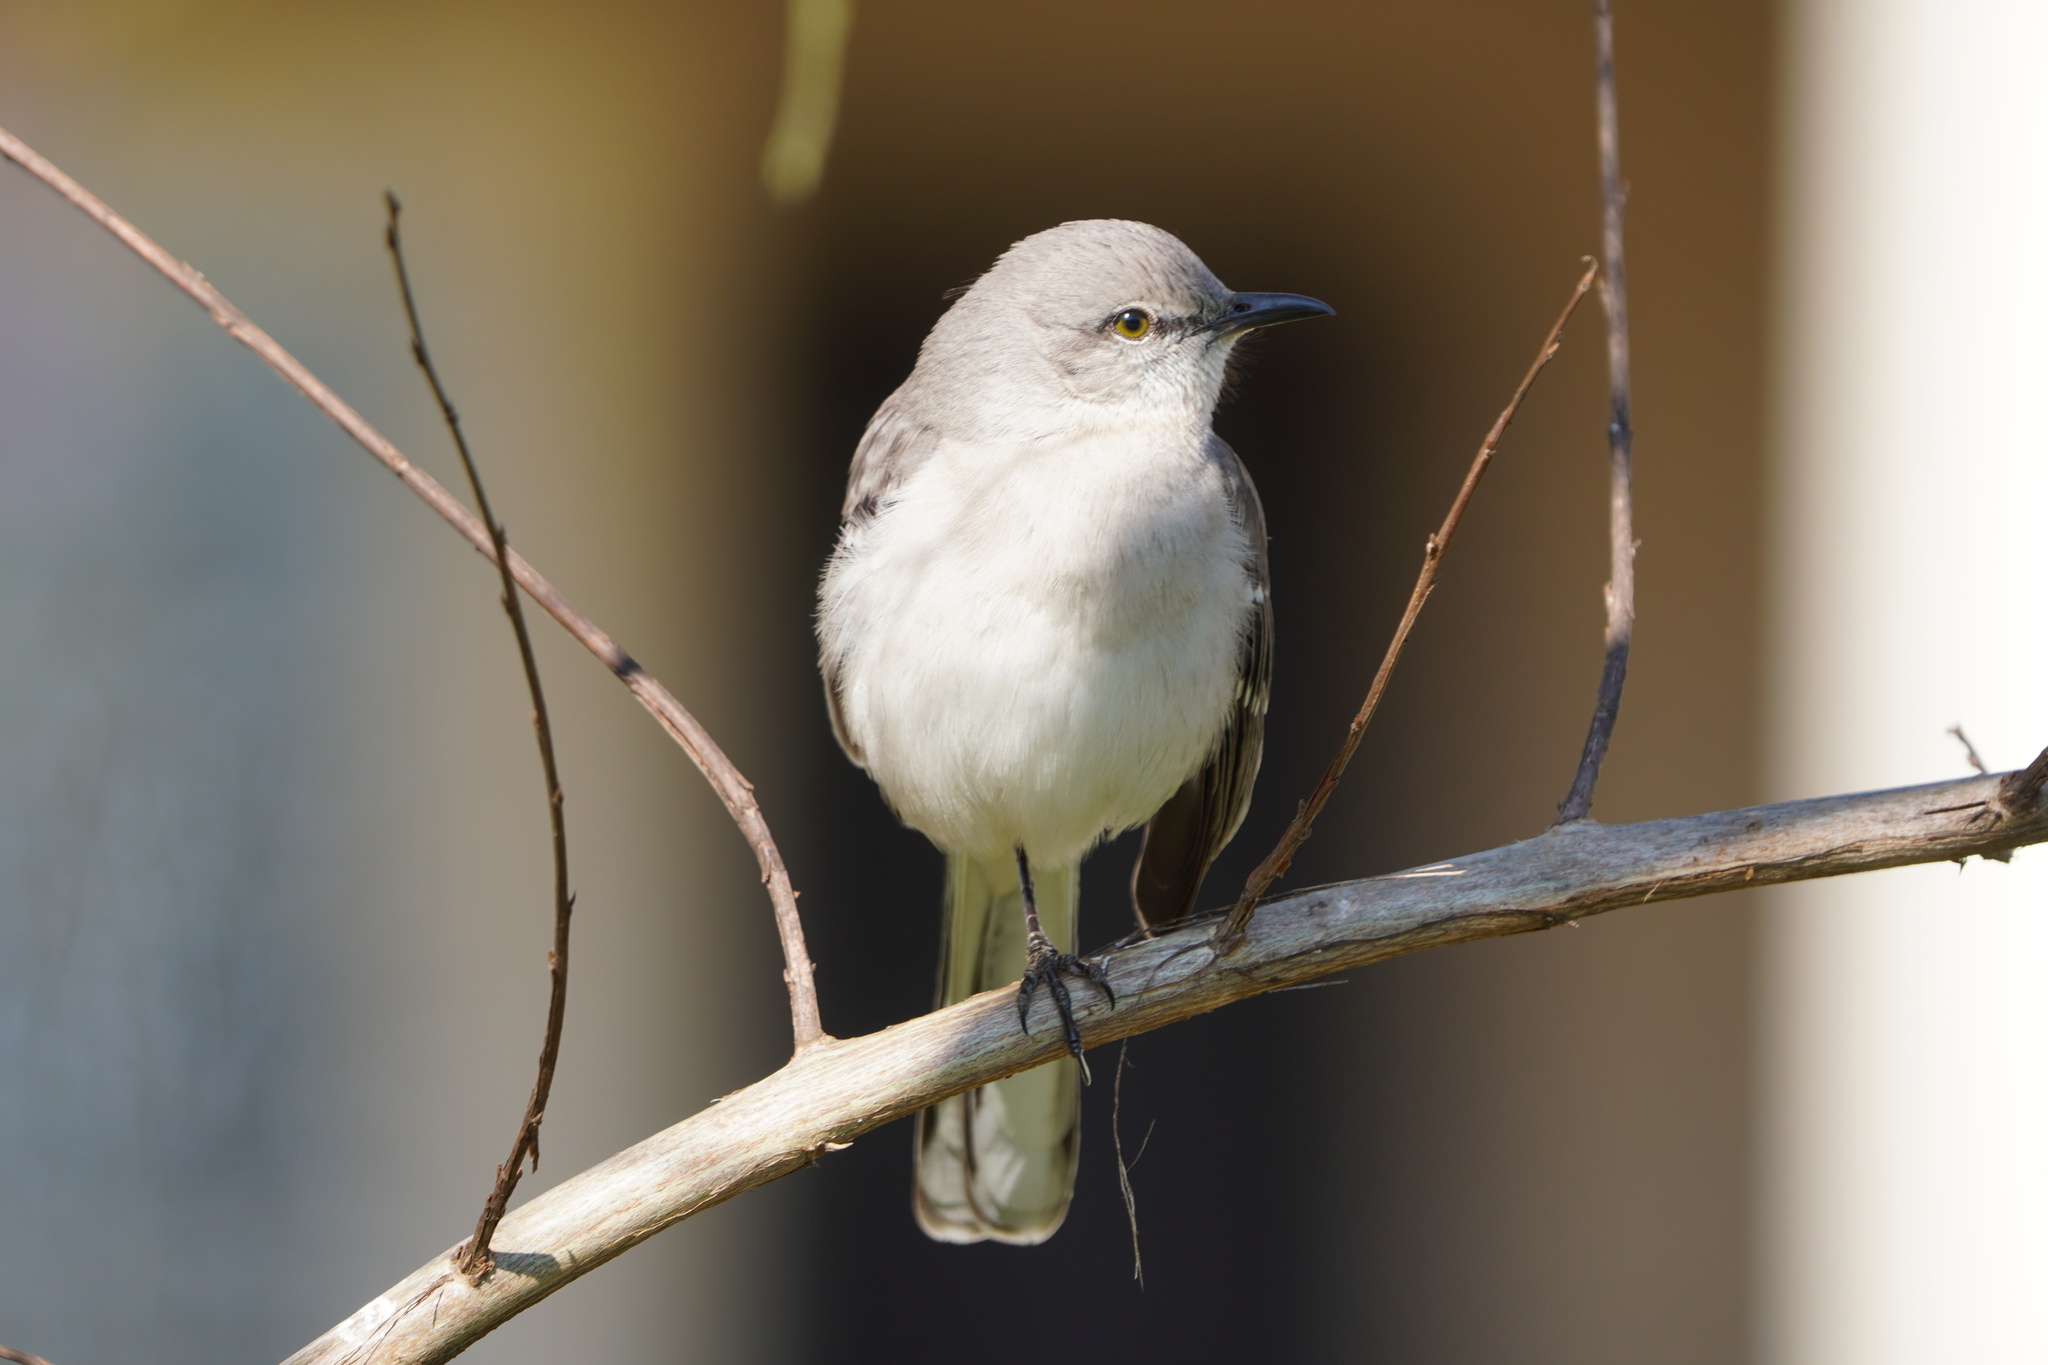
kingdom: Animalia
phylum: Chordata
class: Aves
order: Passeriformes
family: Mimidae
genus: Mimus
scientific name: Mimus polyglottos
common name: Northern mockingbird
